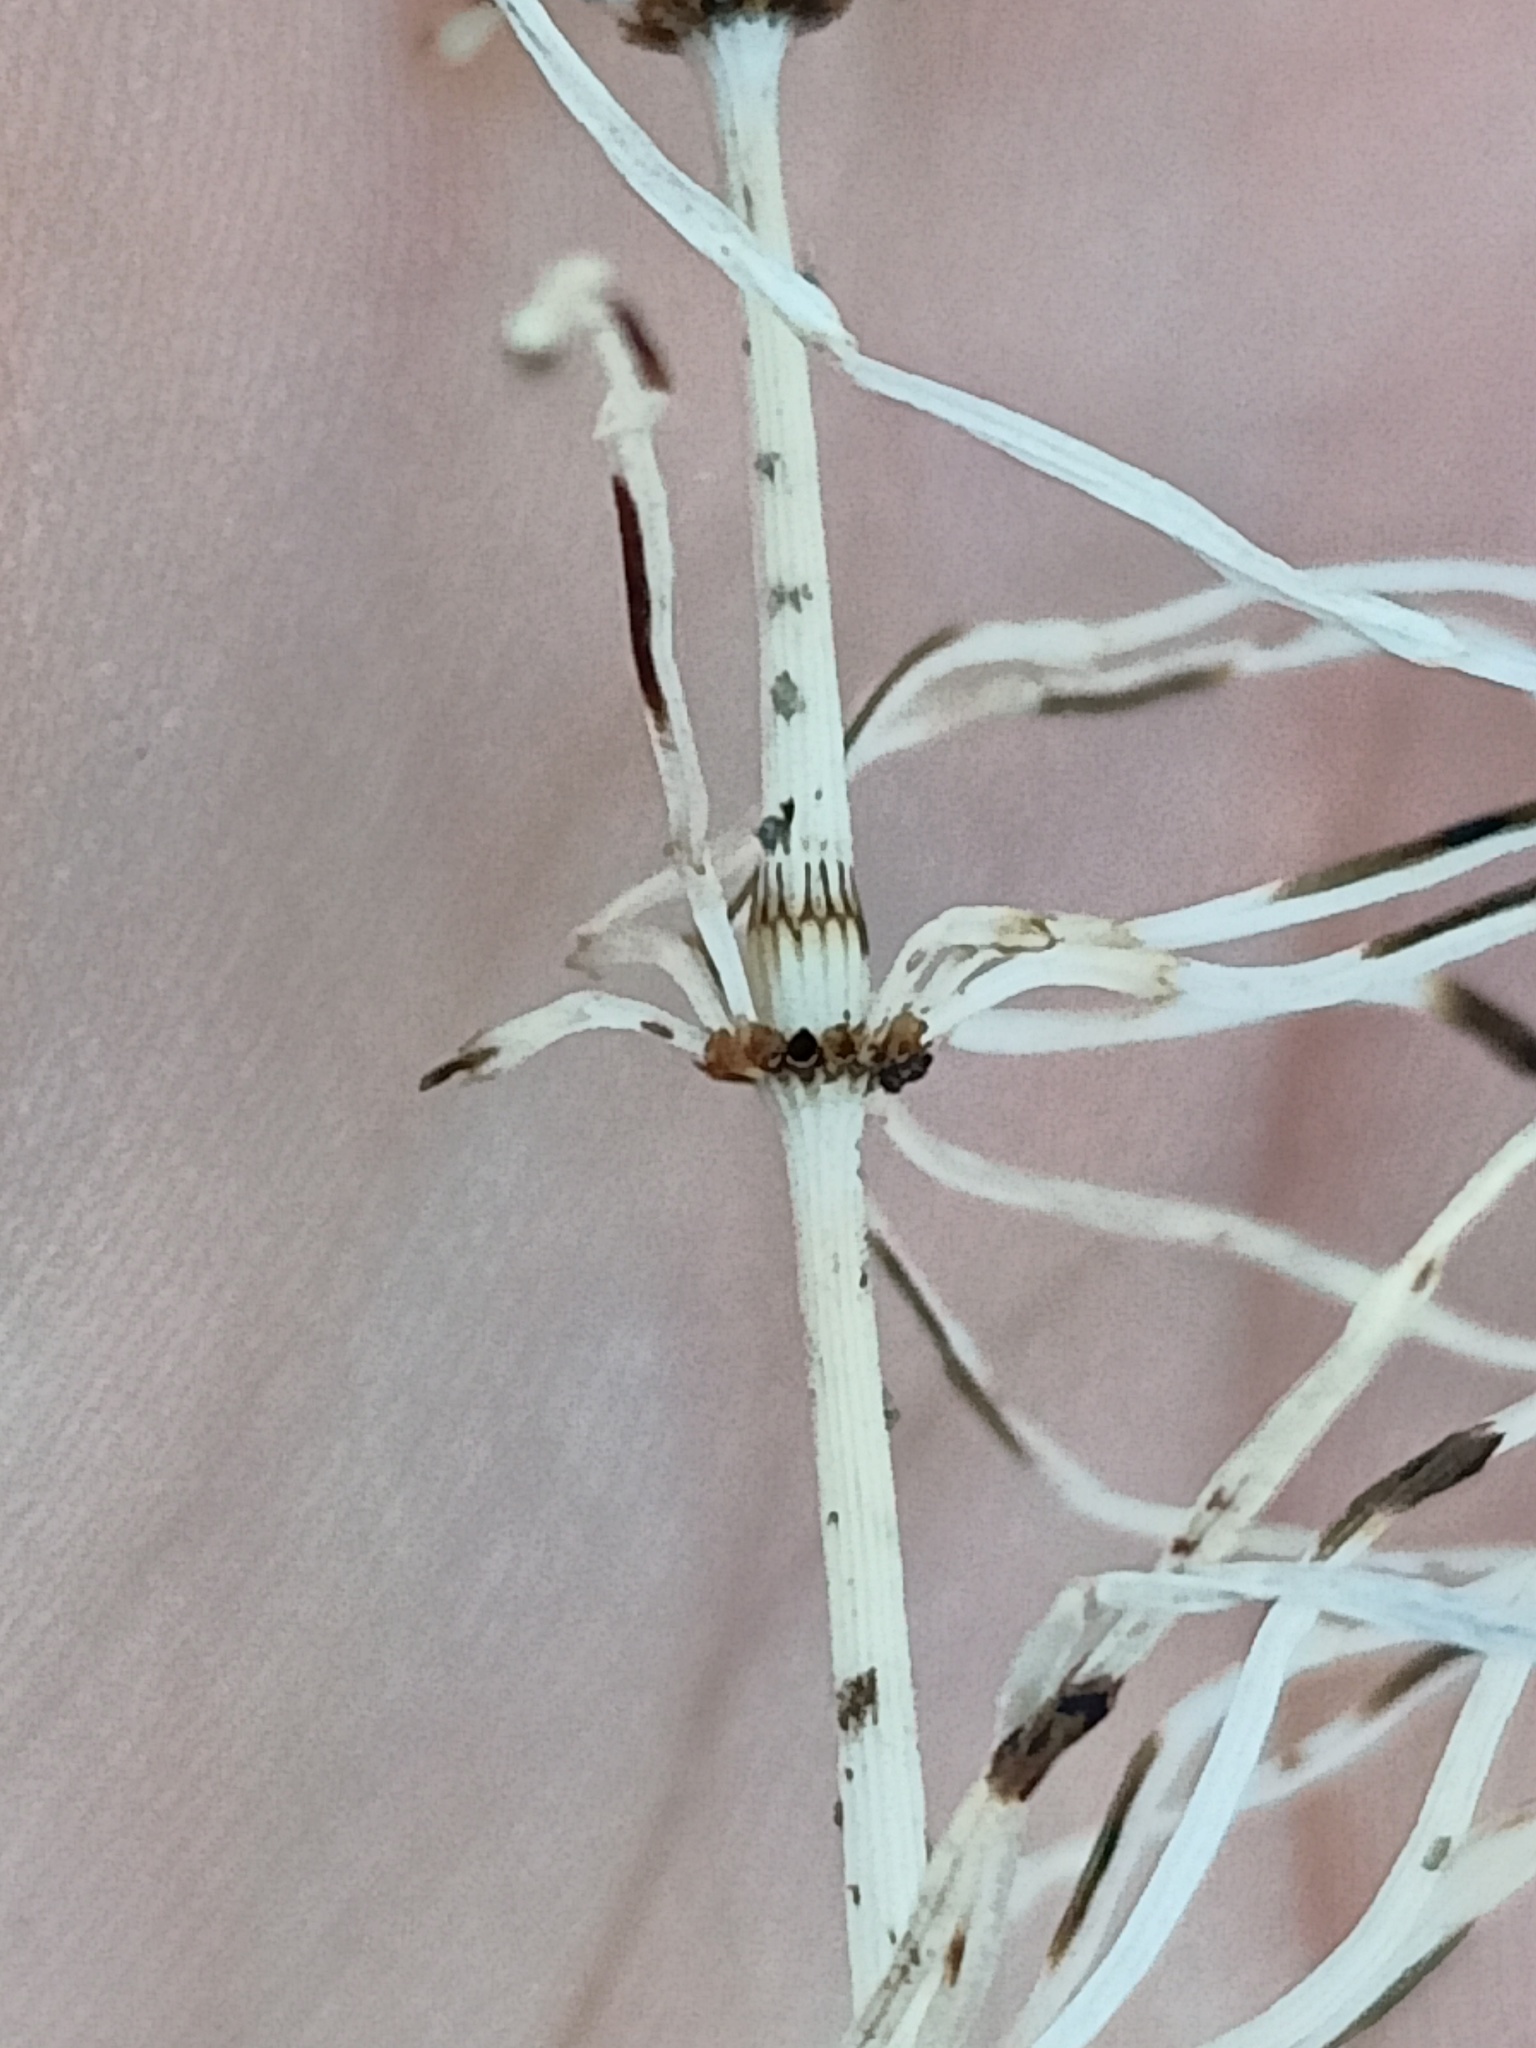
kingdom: Plantae
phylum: Tracheophyta
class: Polypodiopsida
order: Equisetales
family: Equisetaceae
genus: Equisetum
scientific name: Equisetum pratense
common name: Meadow horsetail
